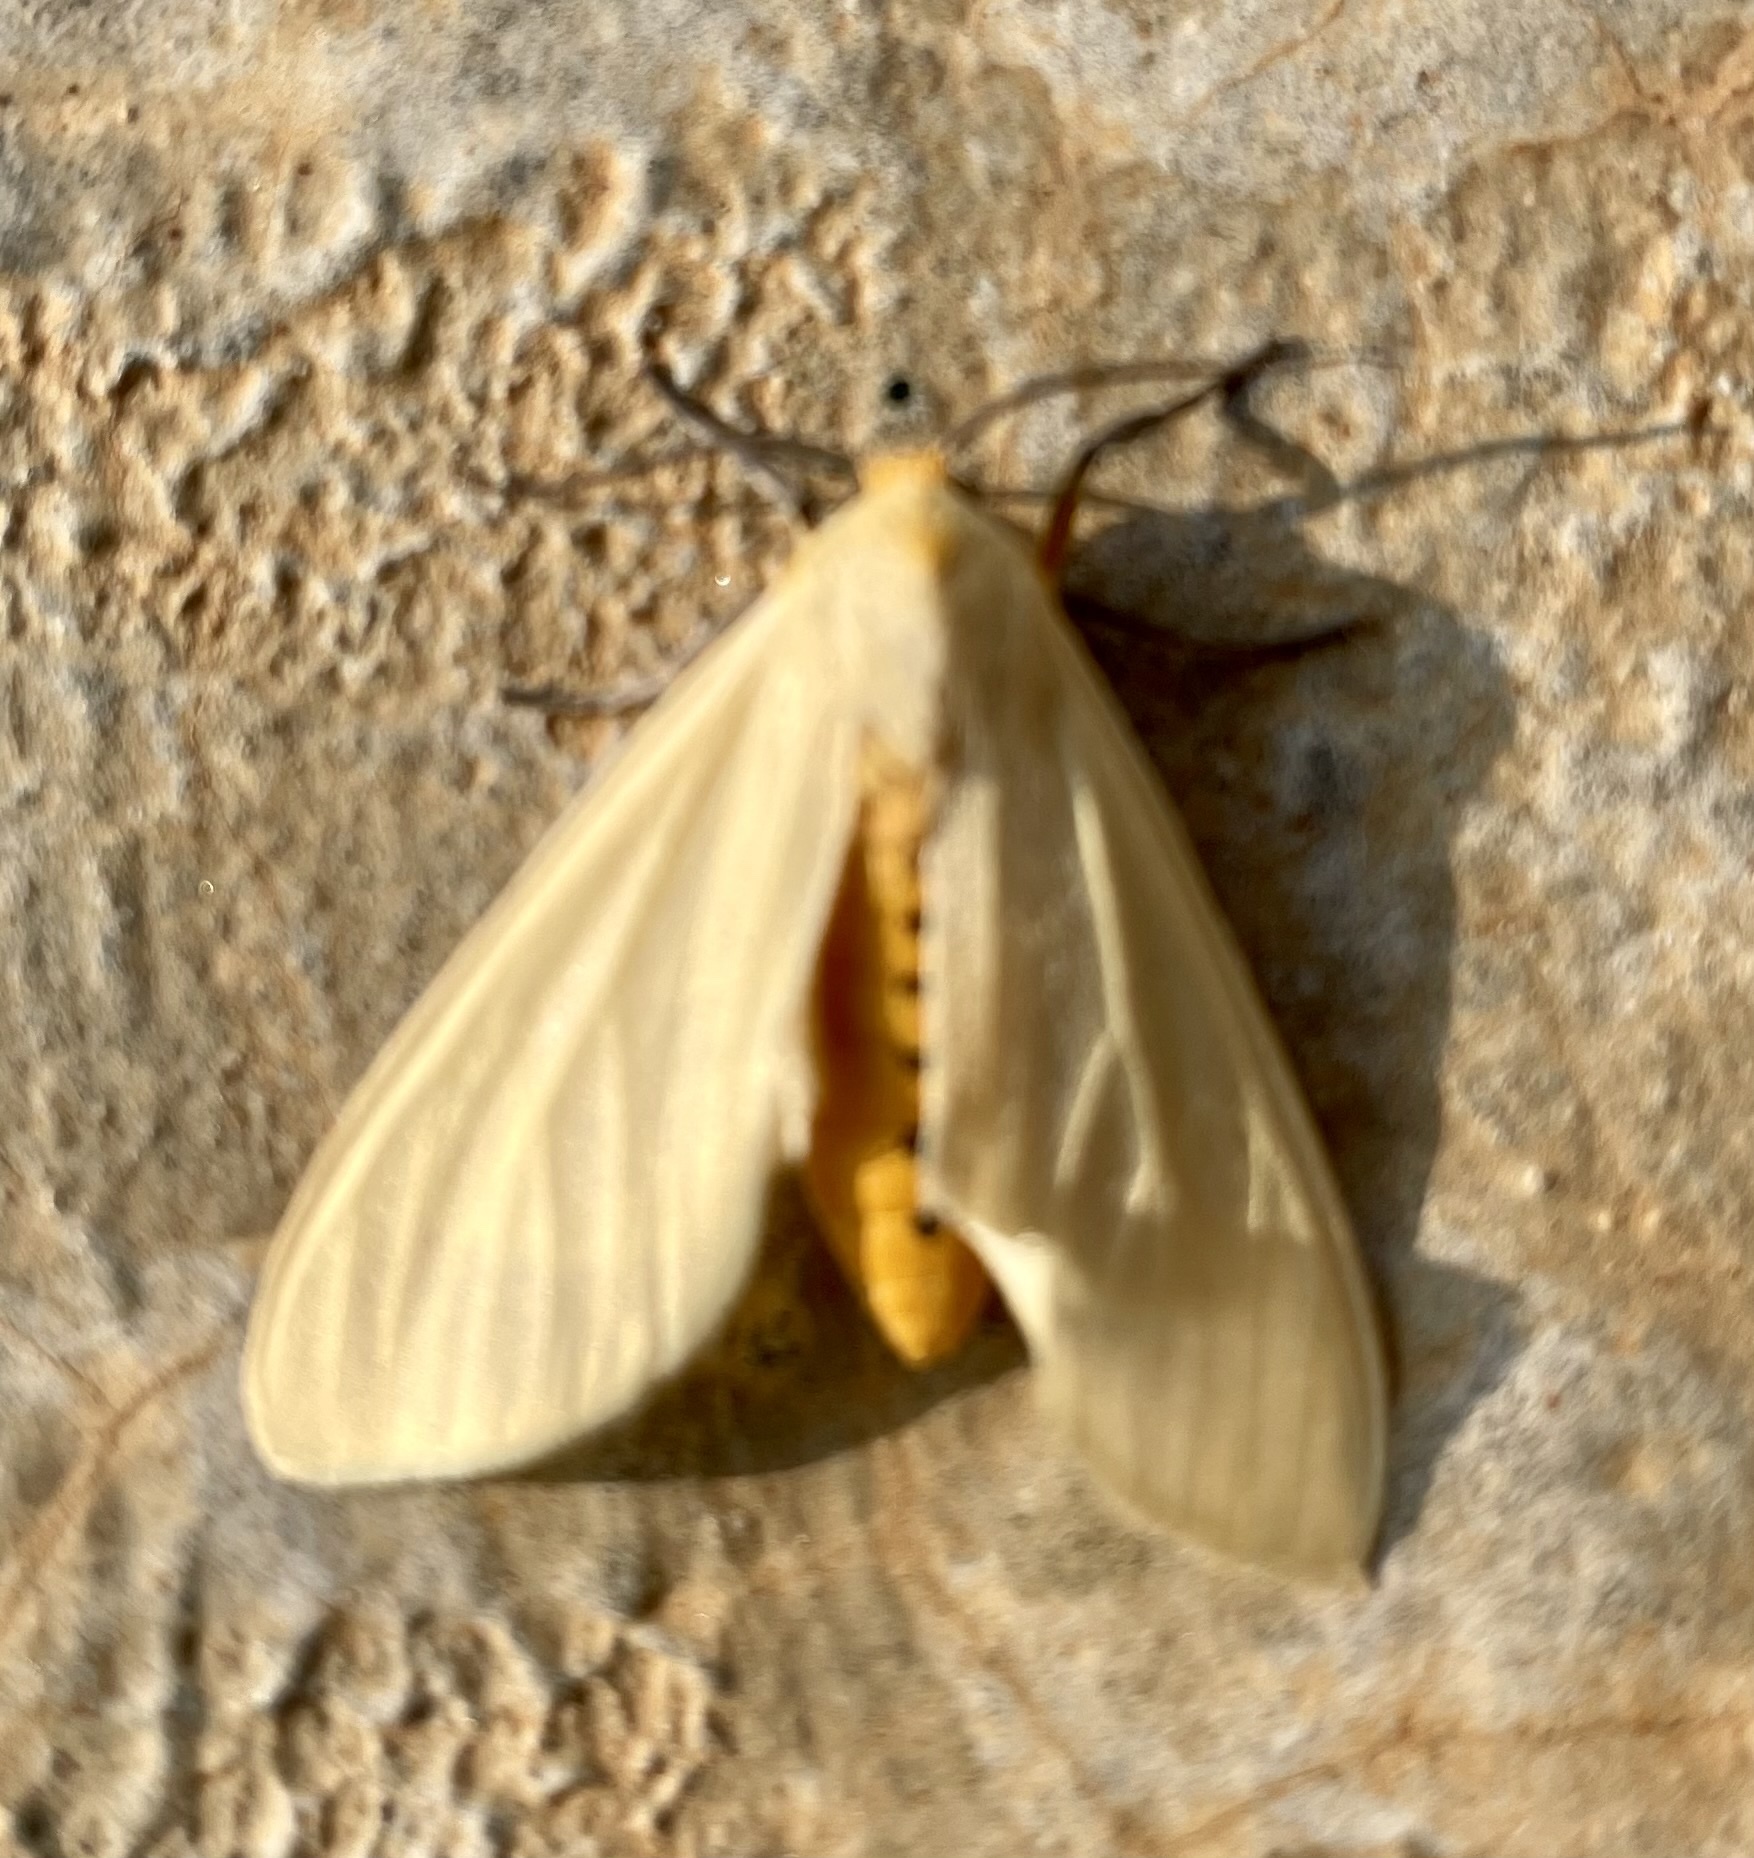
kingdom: Animalia
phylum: Arthropoda
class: Insecta
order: Lepidoptera
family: Erebidae
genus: Creatonotos
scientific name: Creatonotos transiens
